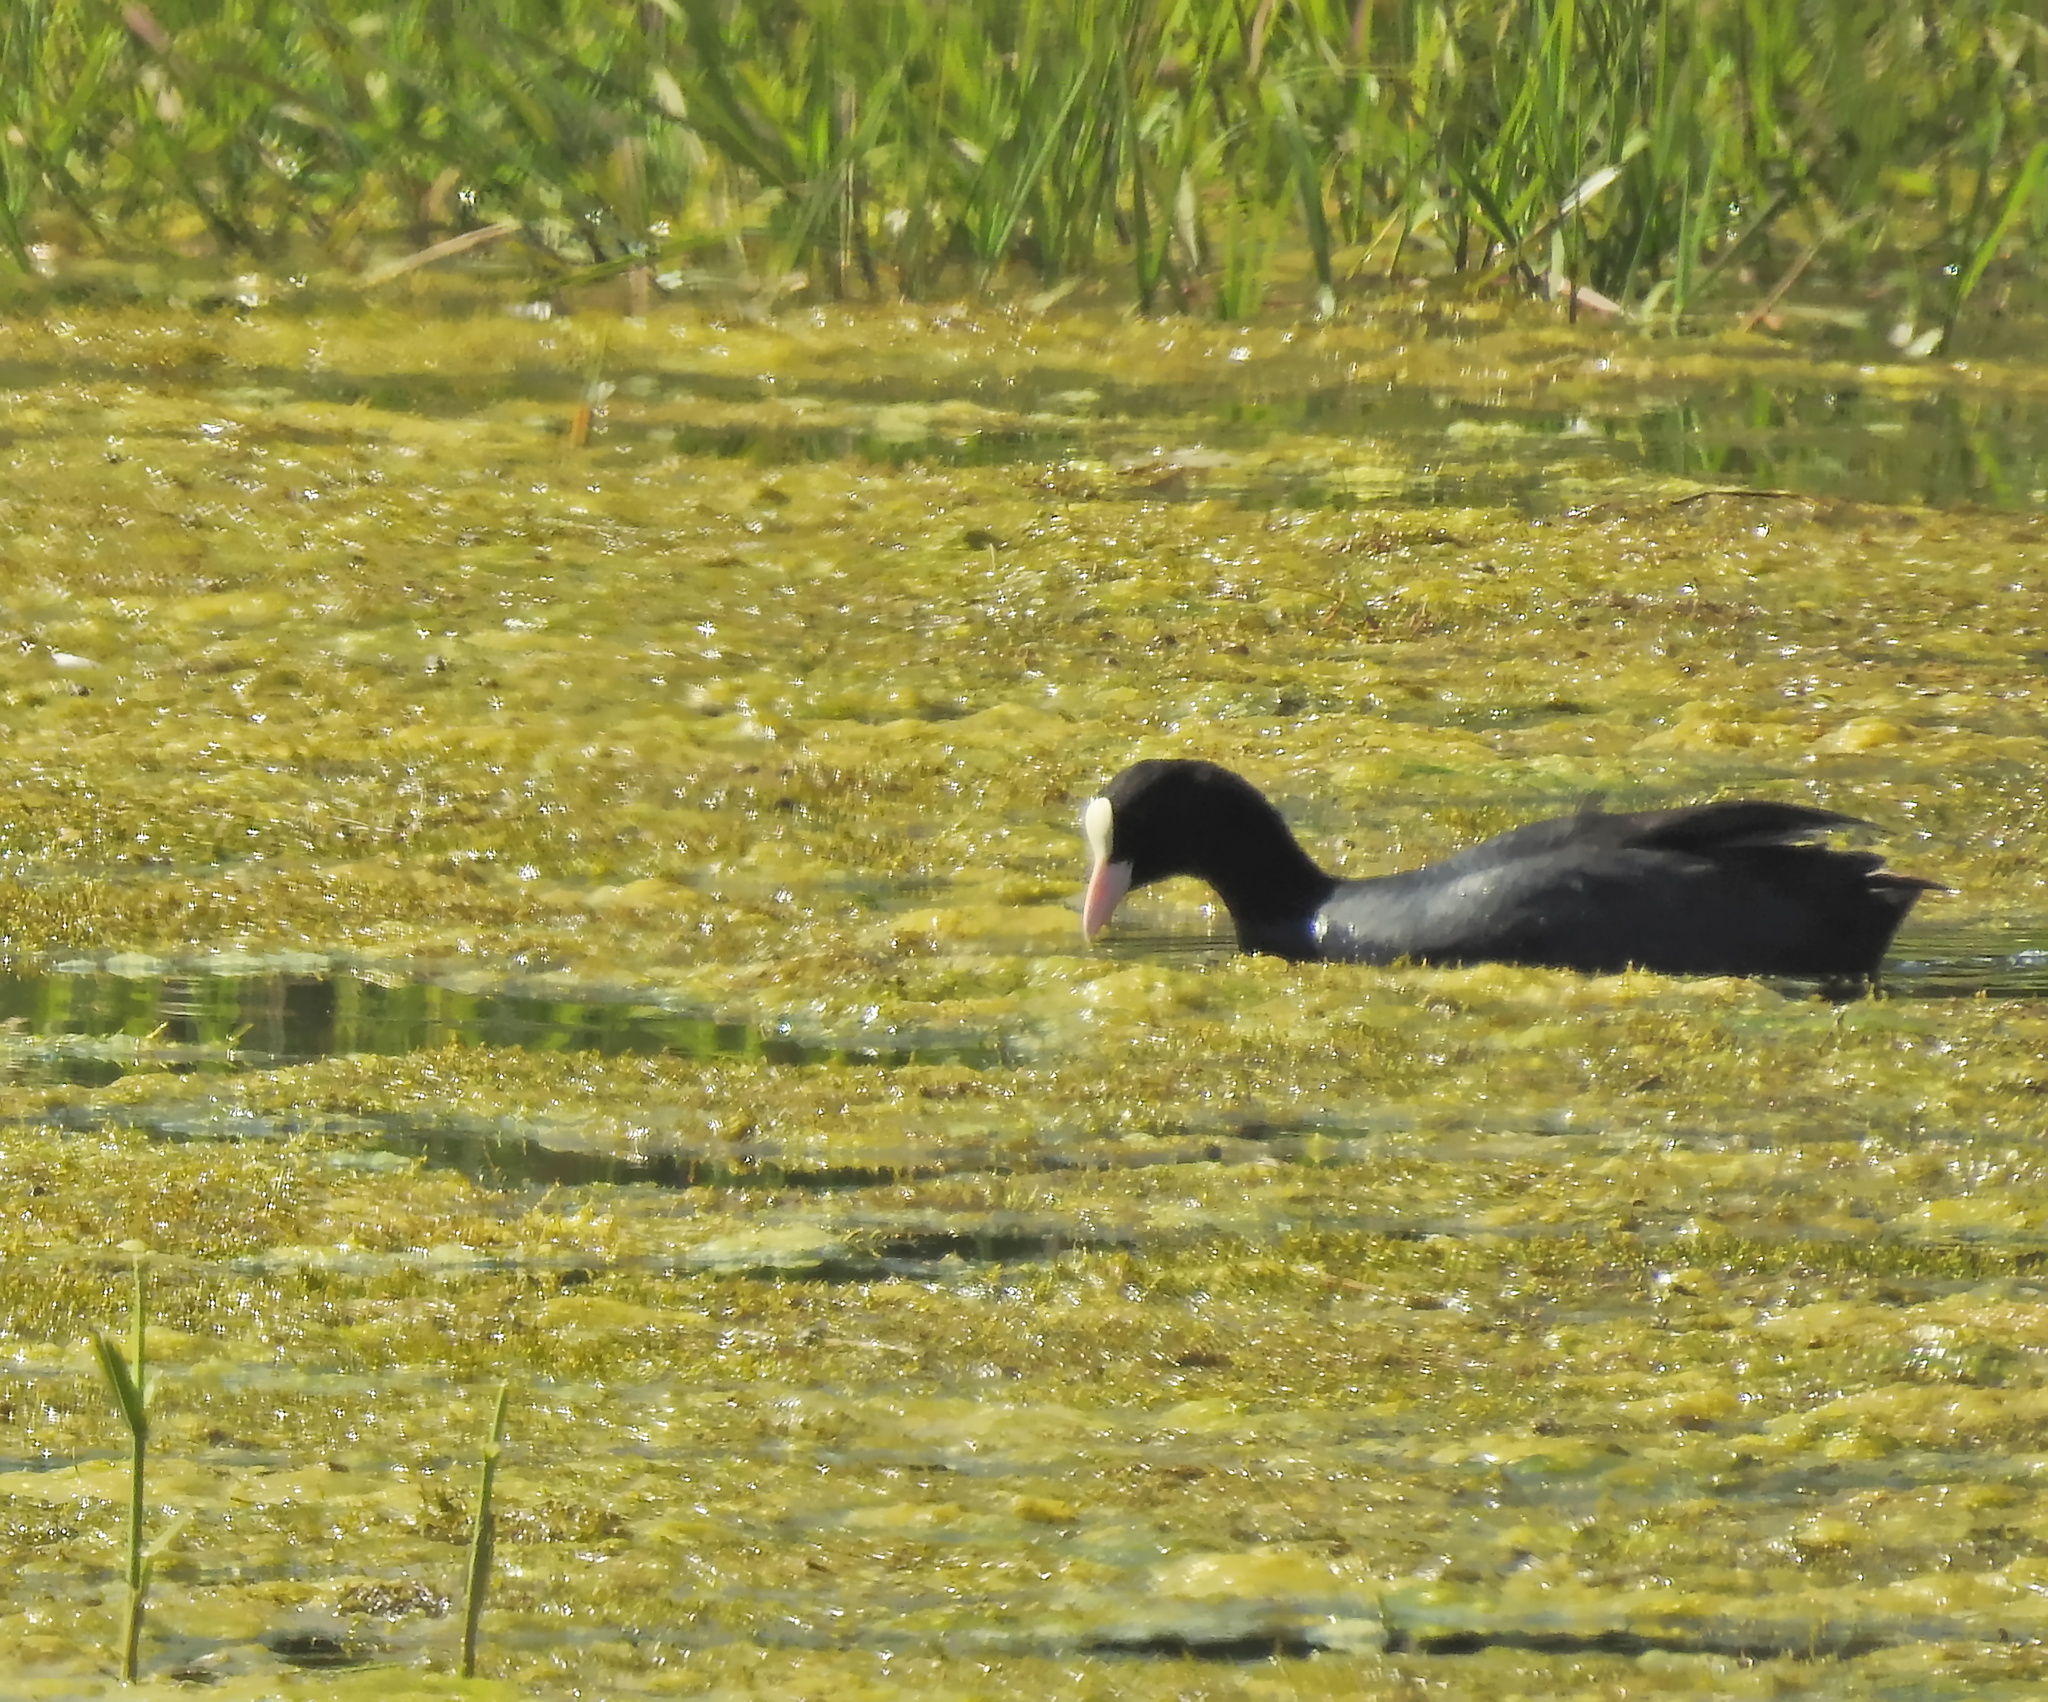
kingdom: Animalia
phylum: Chordata
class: Aves
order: Gruiformes
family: Rallidae
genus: Fulica
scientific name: Fulica atra
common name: Eurasian coot
